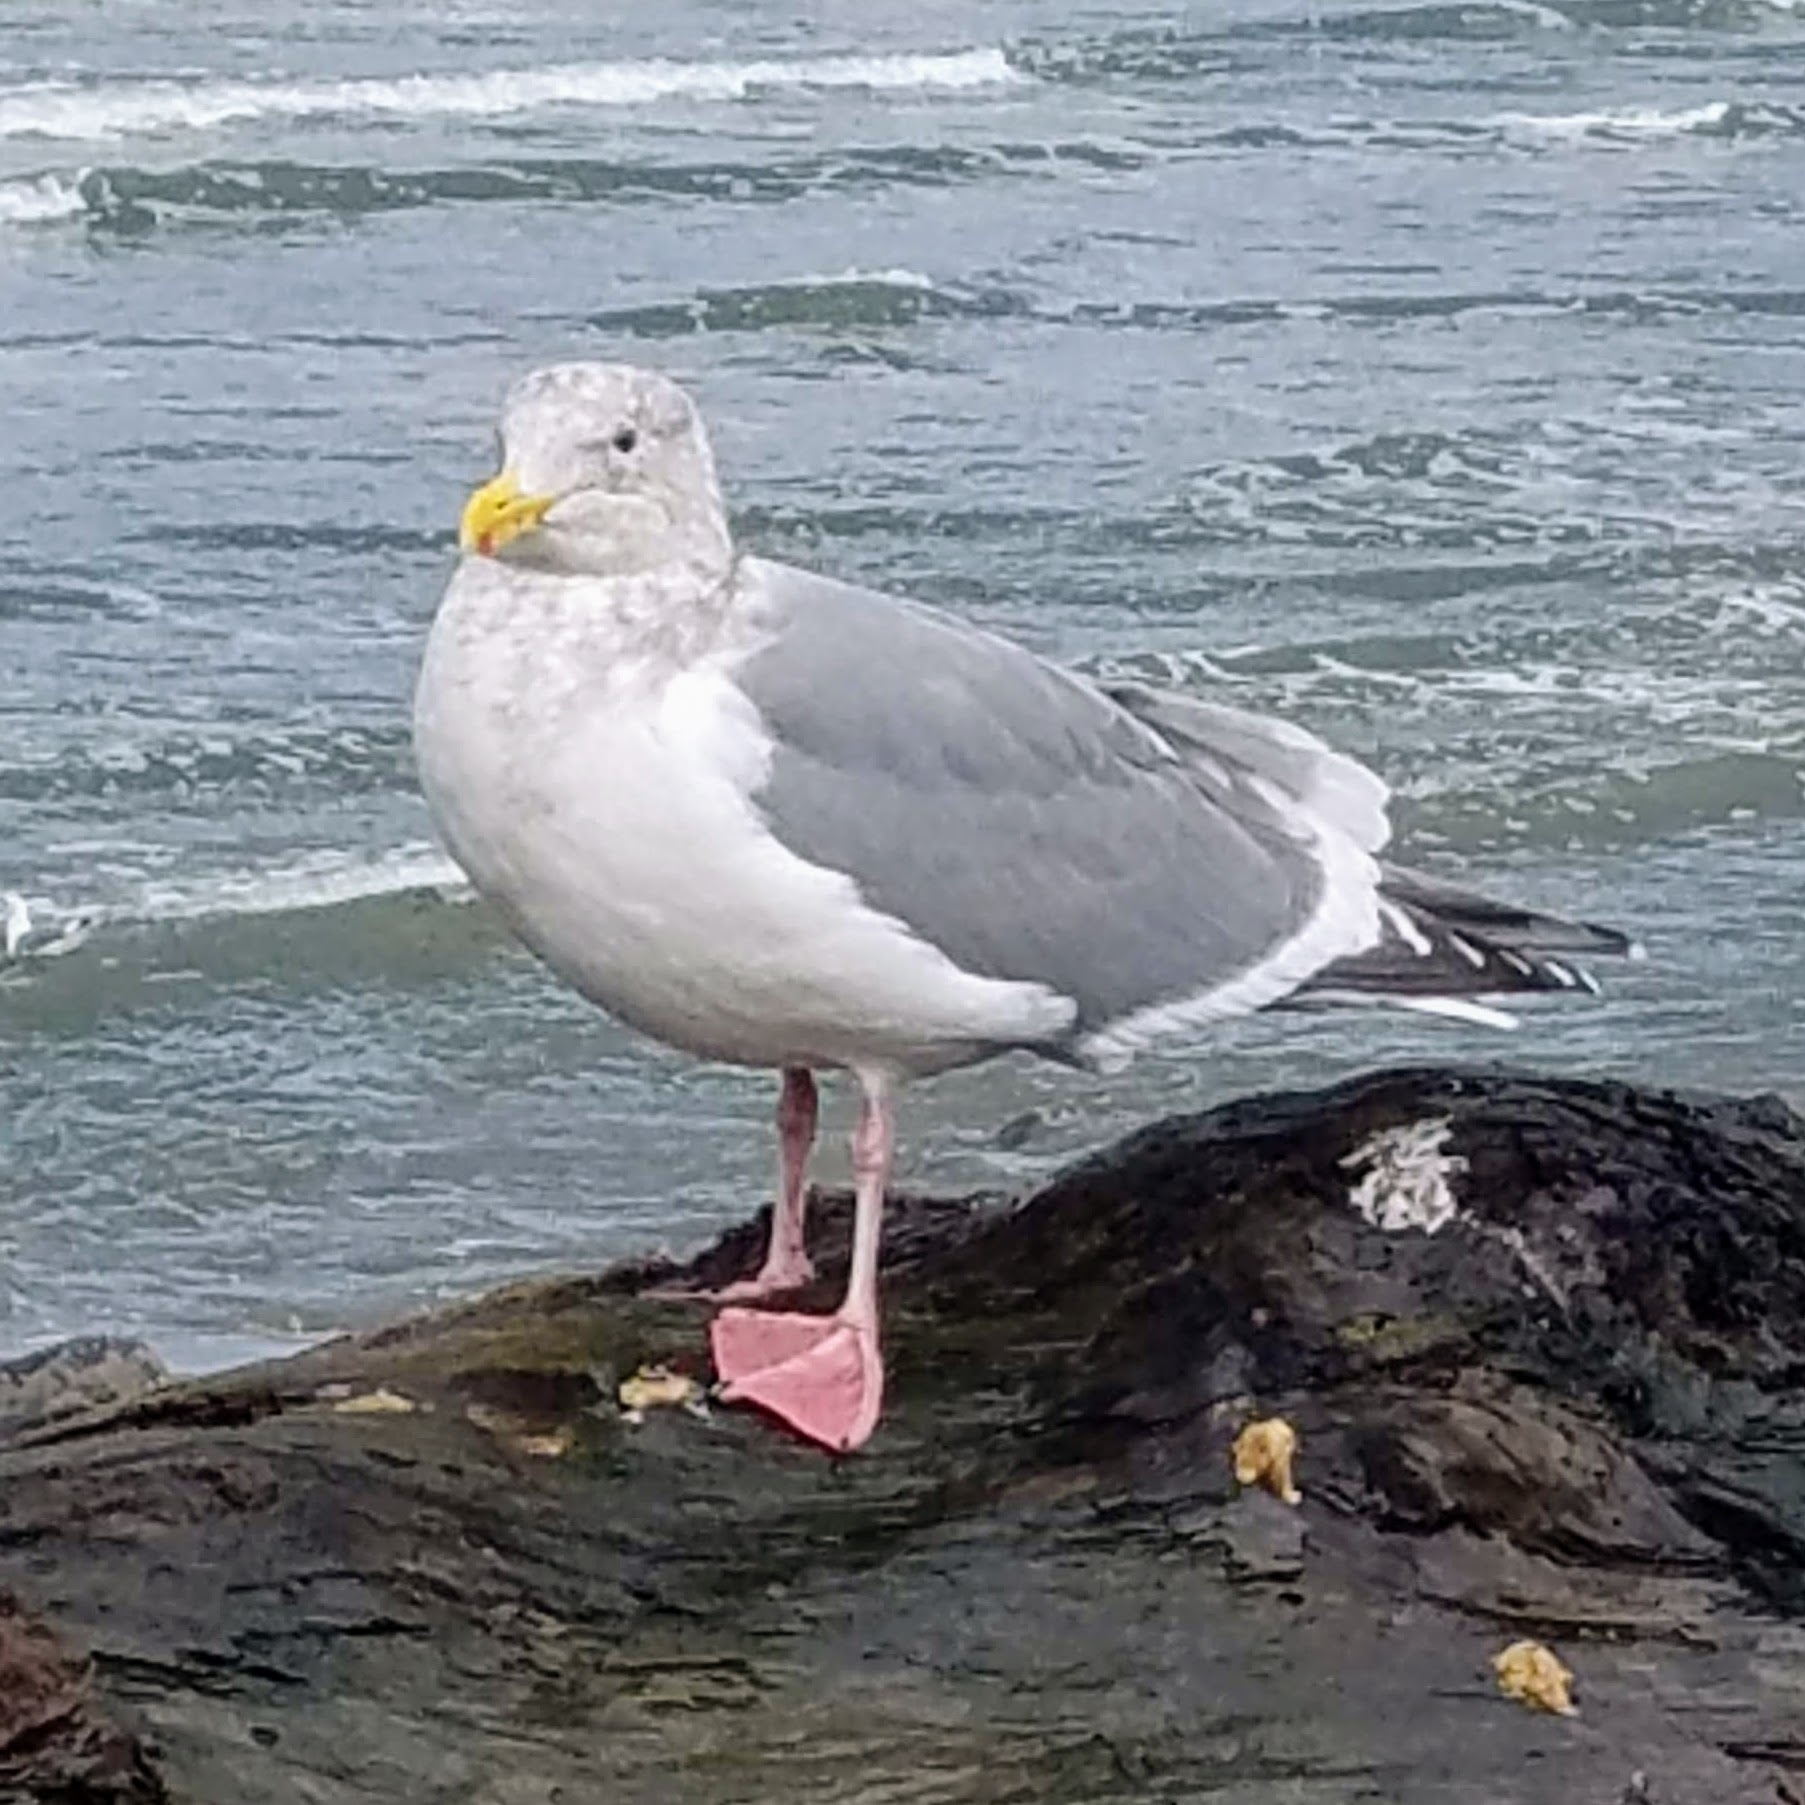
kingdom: Animalia
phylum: Chordata
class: Aves
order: Charadriiformes
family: Laridae
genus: Larus
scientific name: Larus
